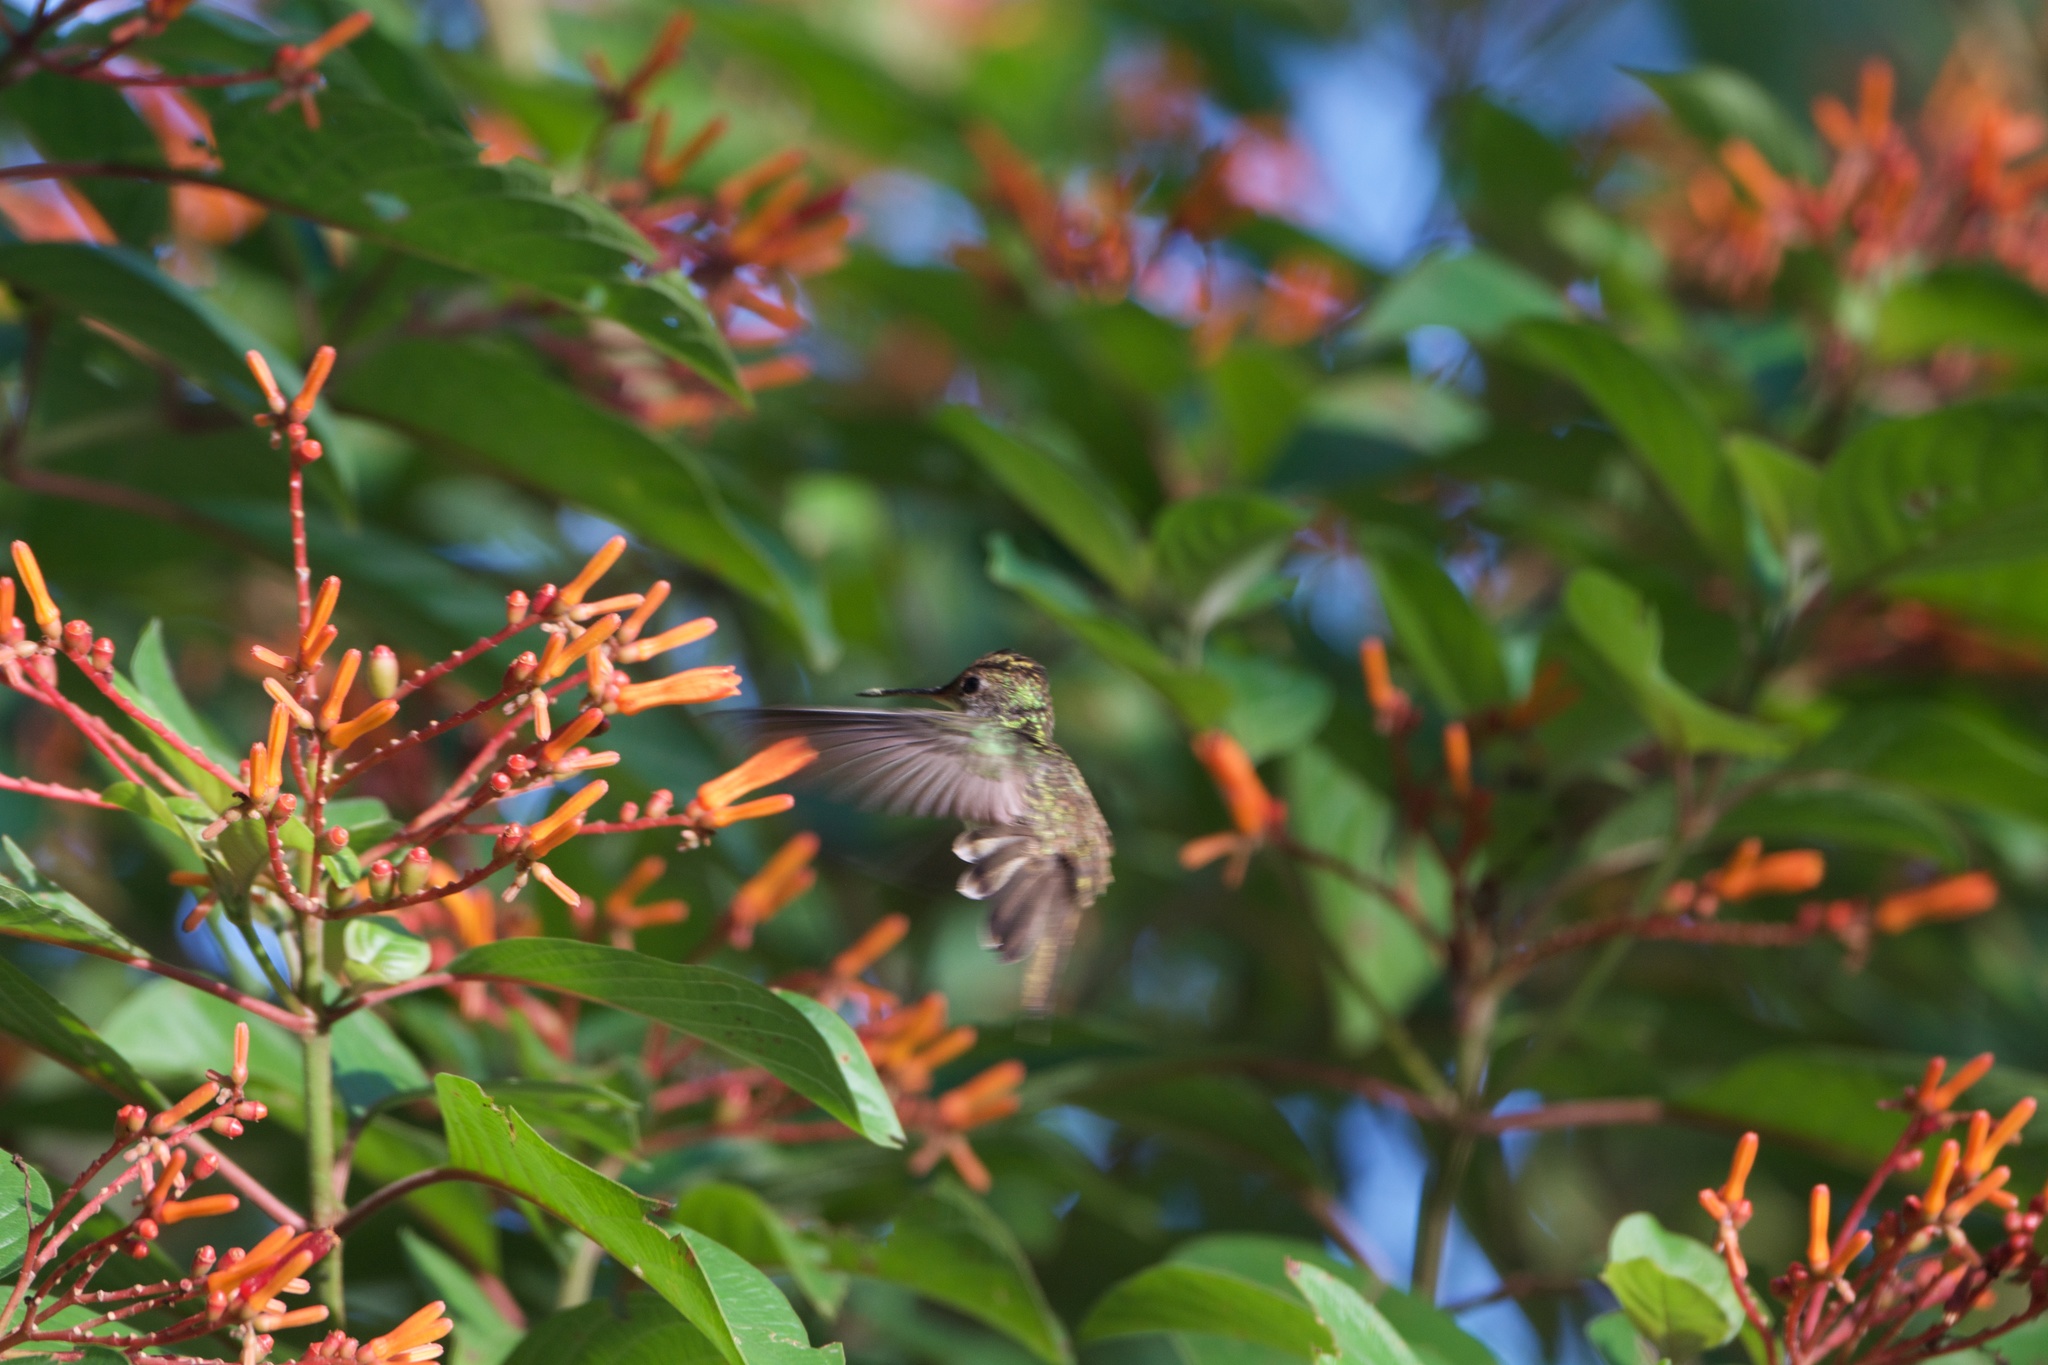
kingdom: Animalia
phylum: Chordata
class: Aves
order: Apodiformes
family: Trochilidae
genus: Chlorestes
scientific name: Chlorestes candida
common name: White-bellied emerald
